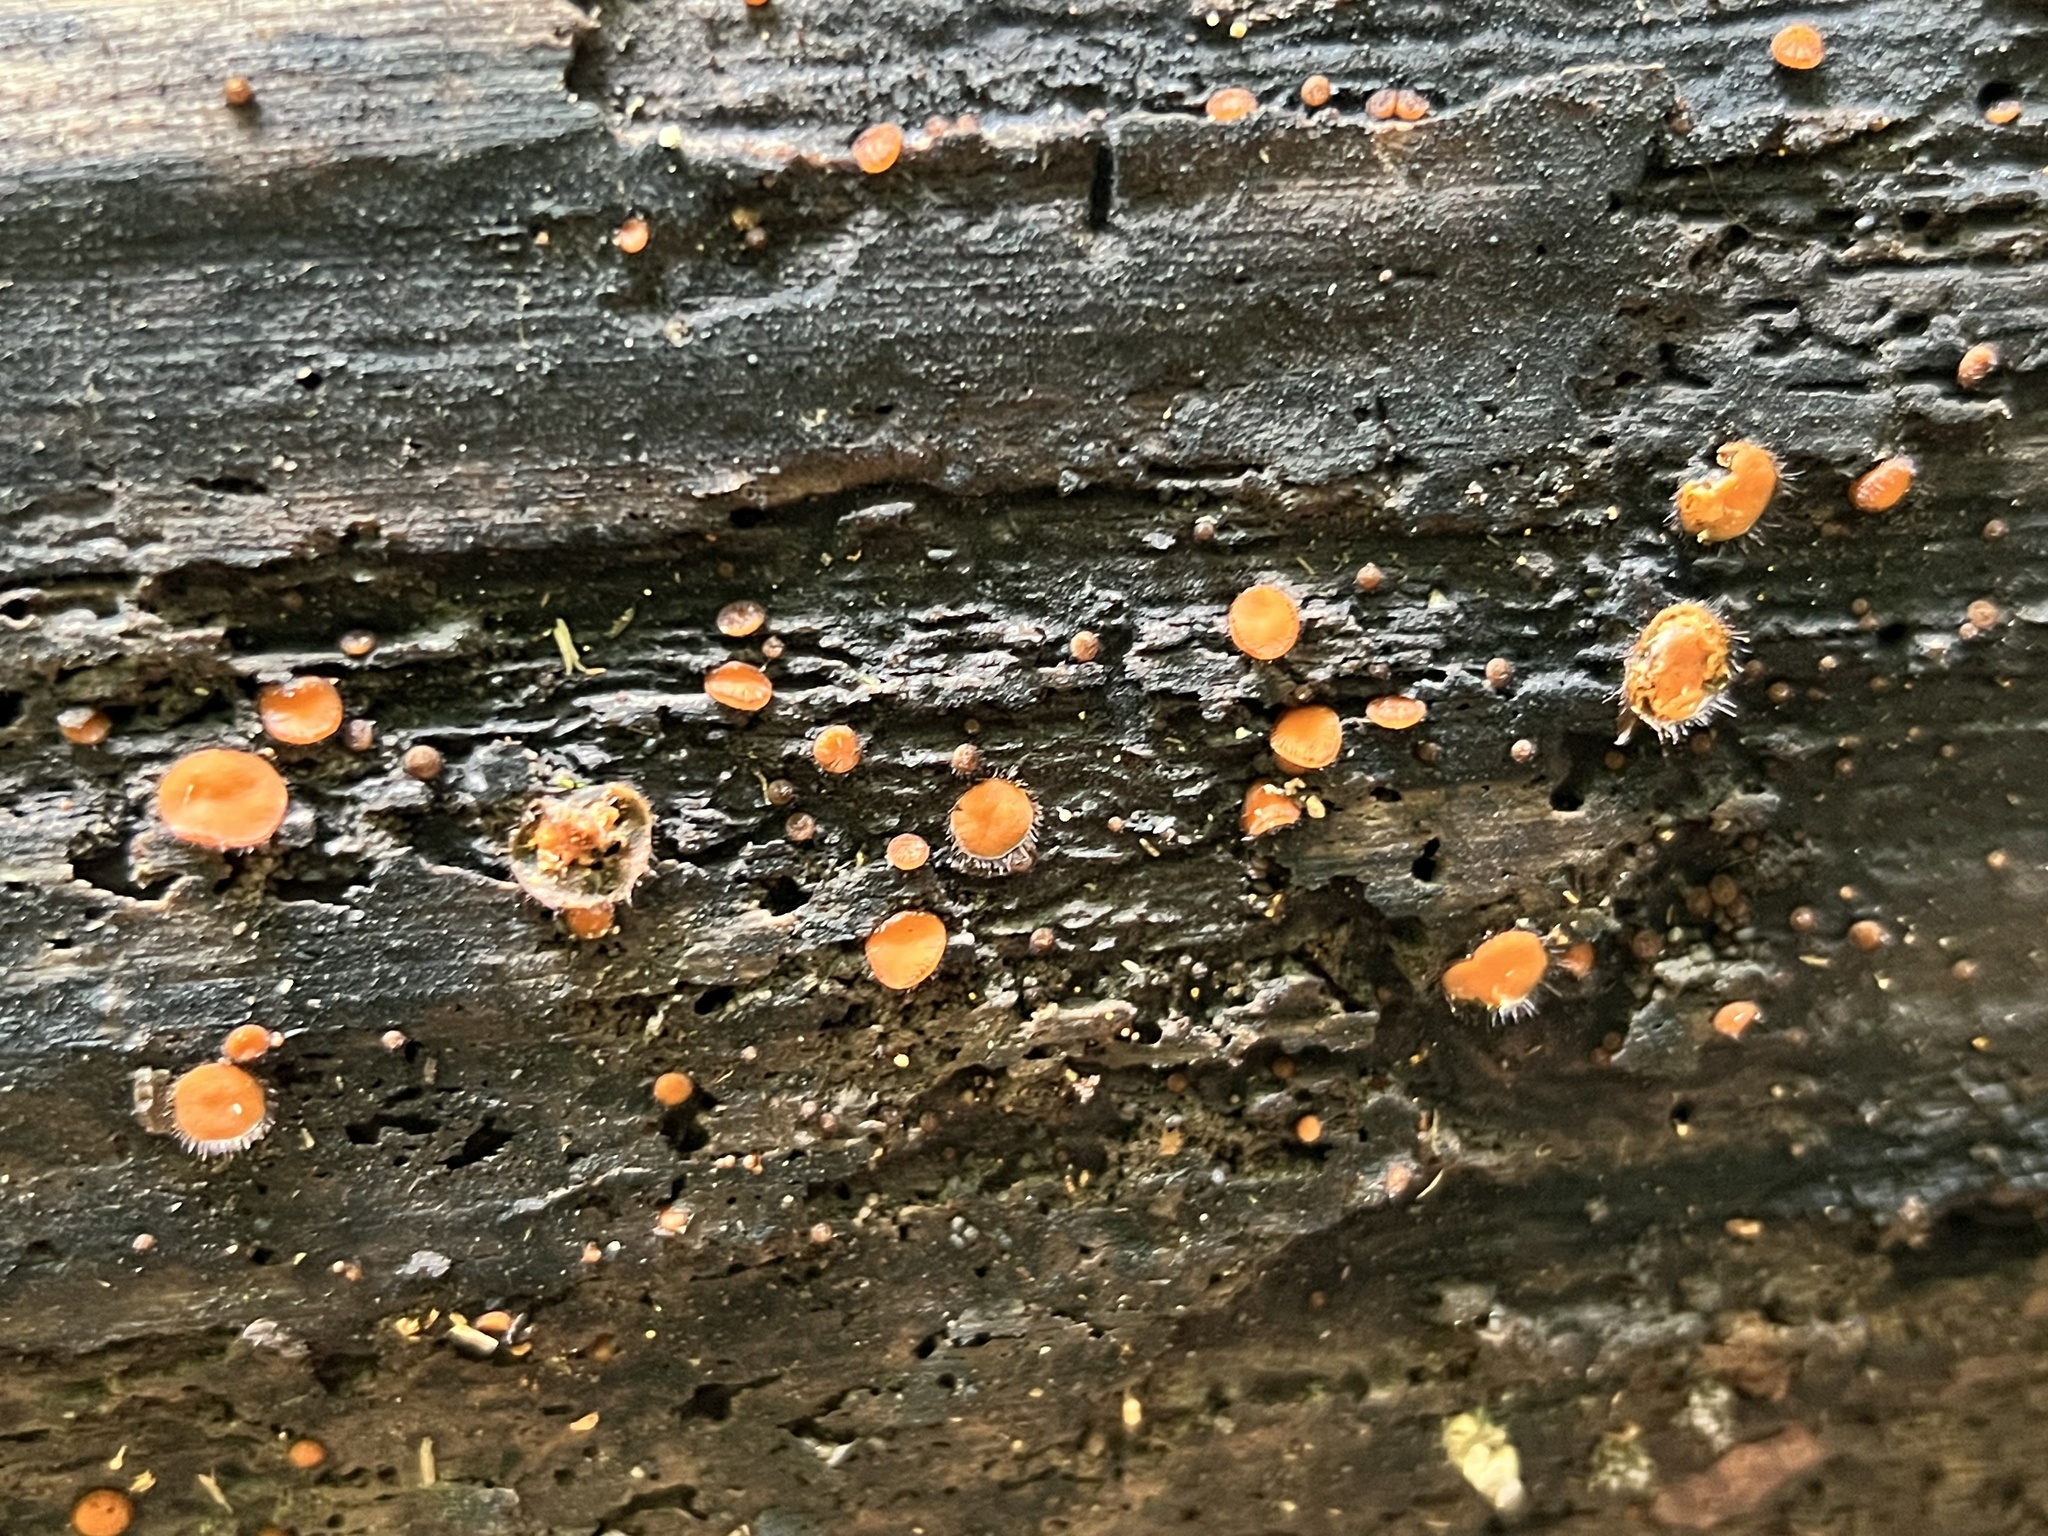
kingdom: Fungi
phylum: Ascomycota
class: Pezizomycetes
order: Pezizales
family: Pyronemataceae
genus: Scutellinia
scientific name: Scutellinia
